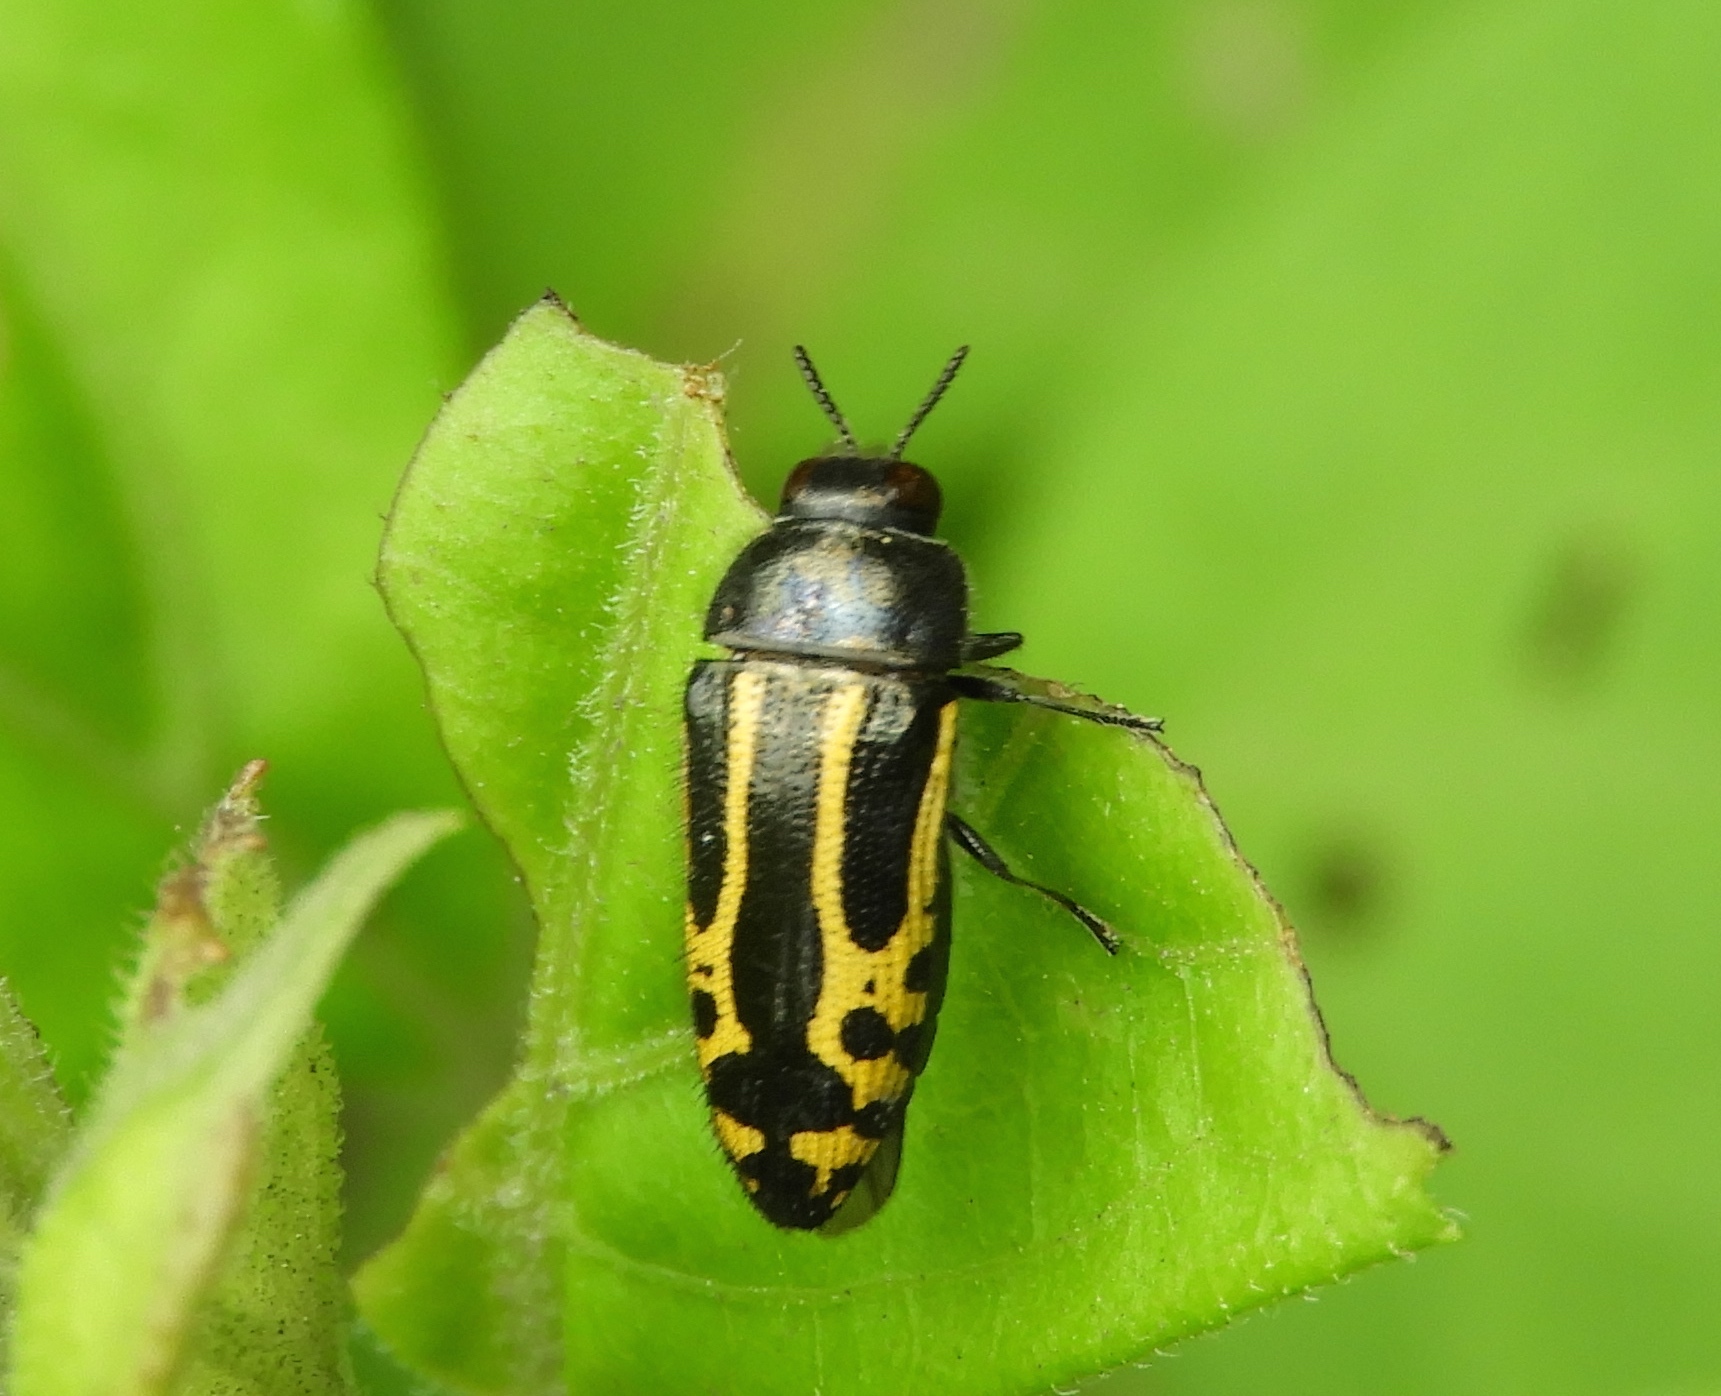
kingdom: Animalia
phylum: Arthropoda
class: Insecta
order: Coleoptera
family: Buprestidae
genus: Acmaeodera
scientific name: Acmaeodera scalaris
